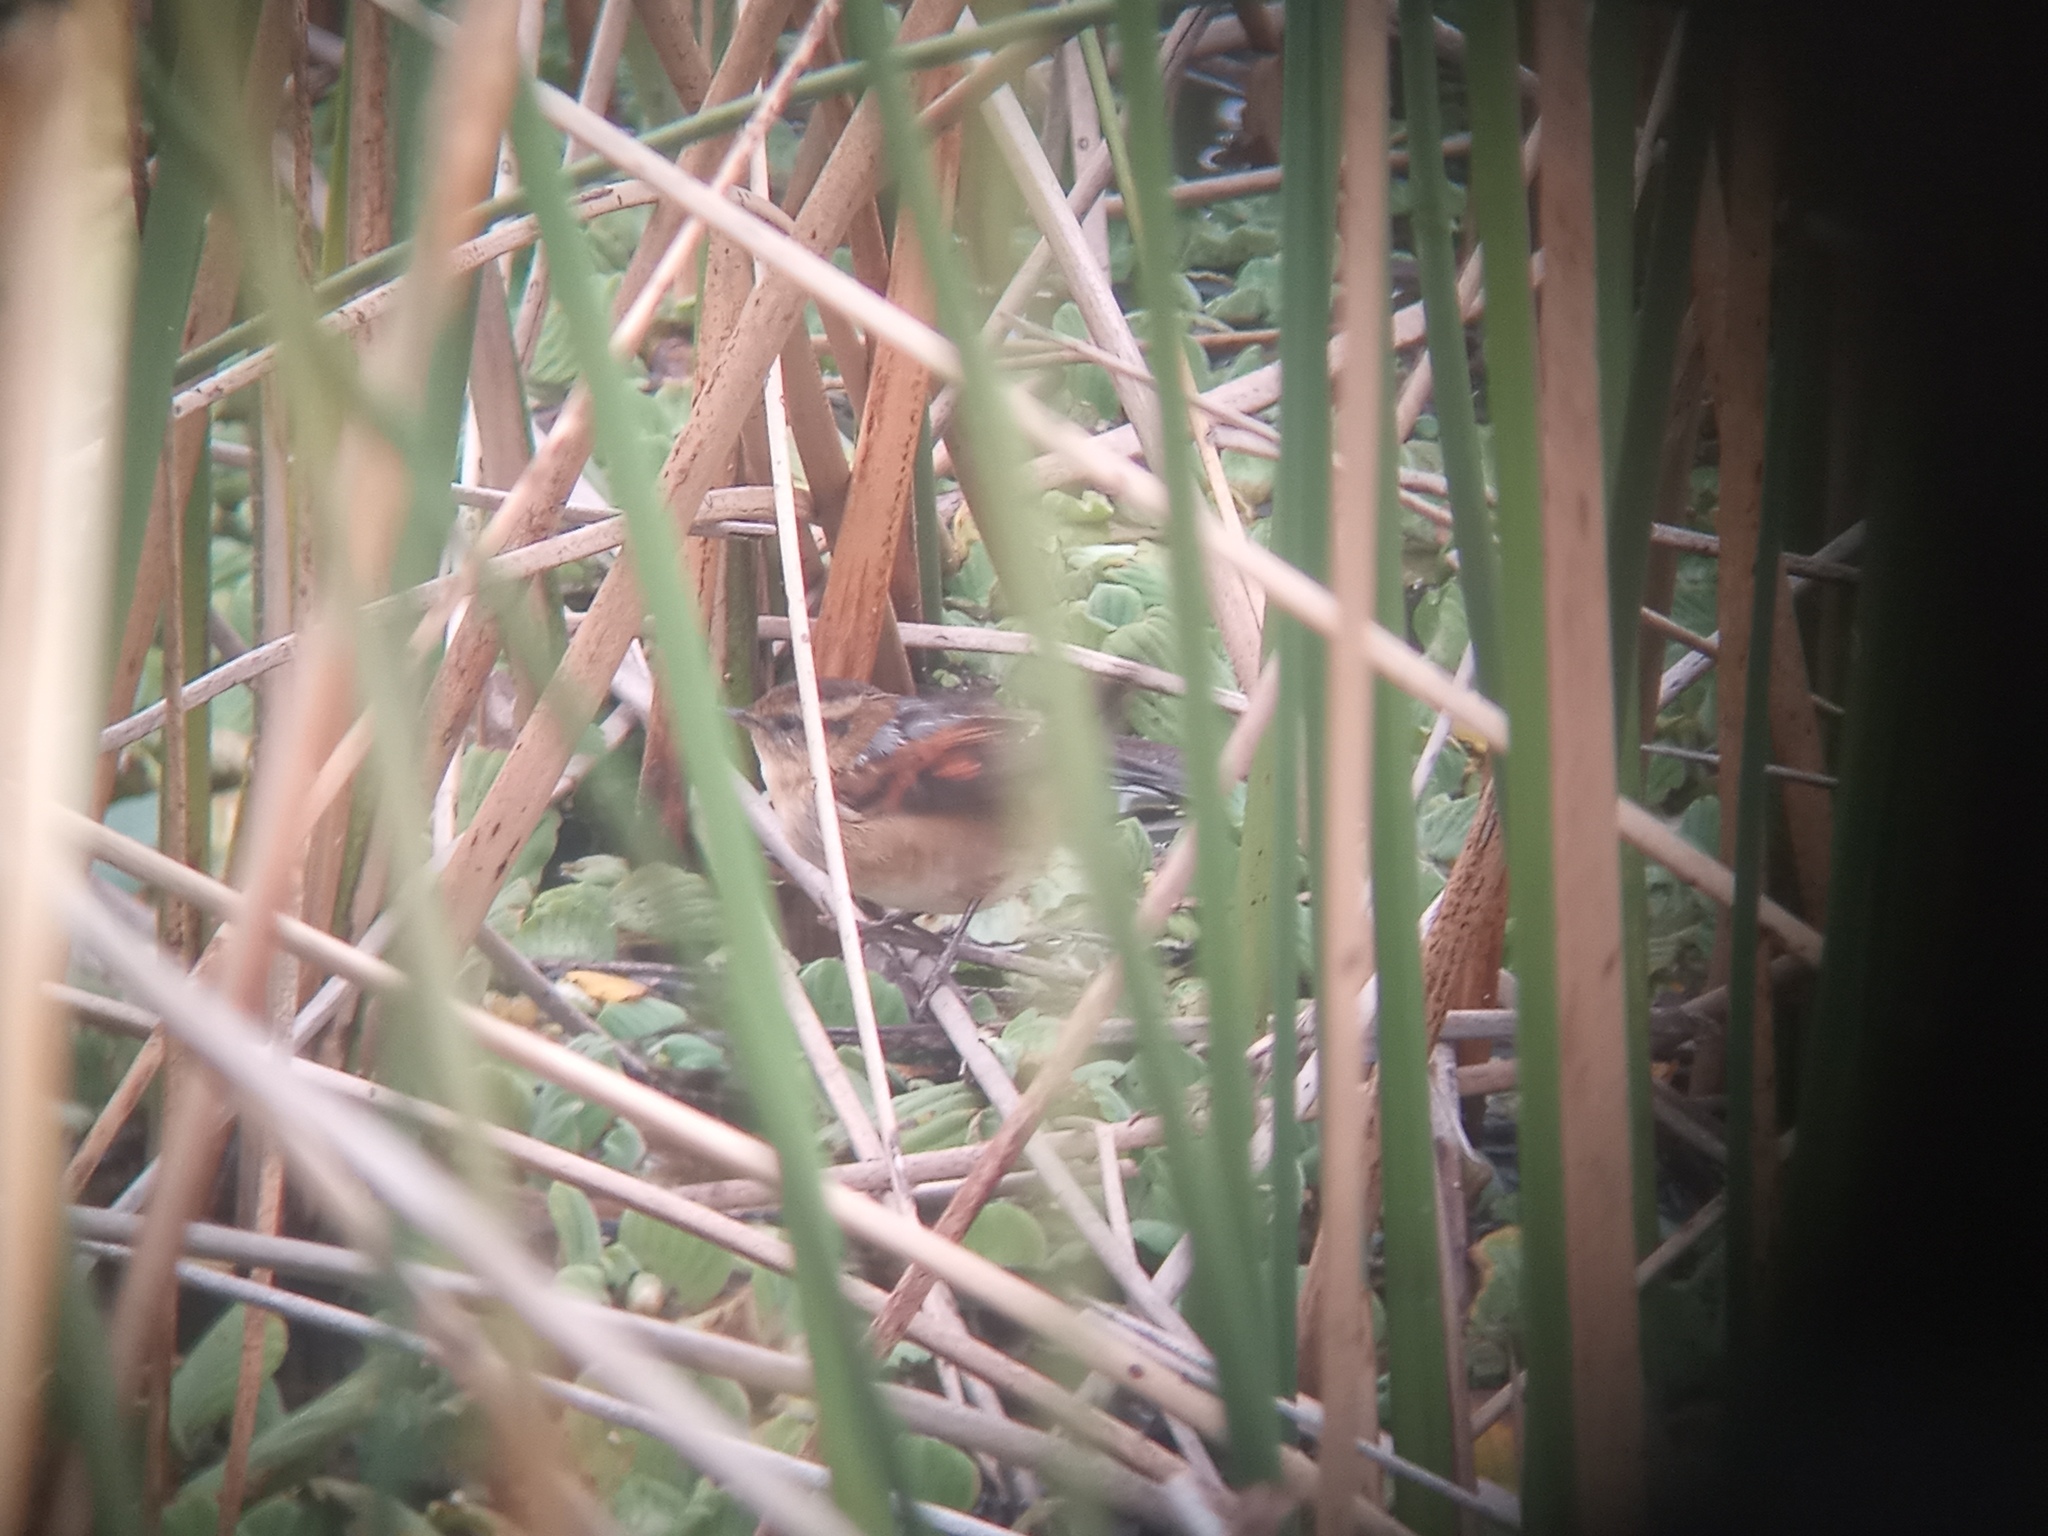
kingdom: Animalia
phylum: Chordata
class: Aves
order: Passeriformes
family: Furnariidae
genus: Phleocryptes
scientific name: Phleocryptes melanops
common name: Wren-like rushbird
